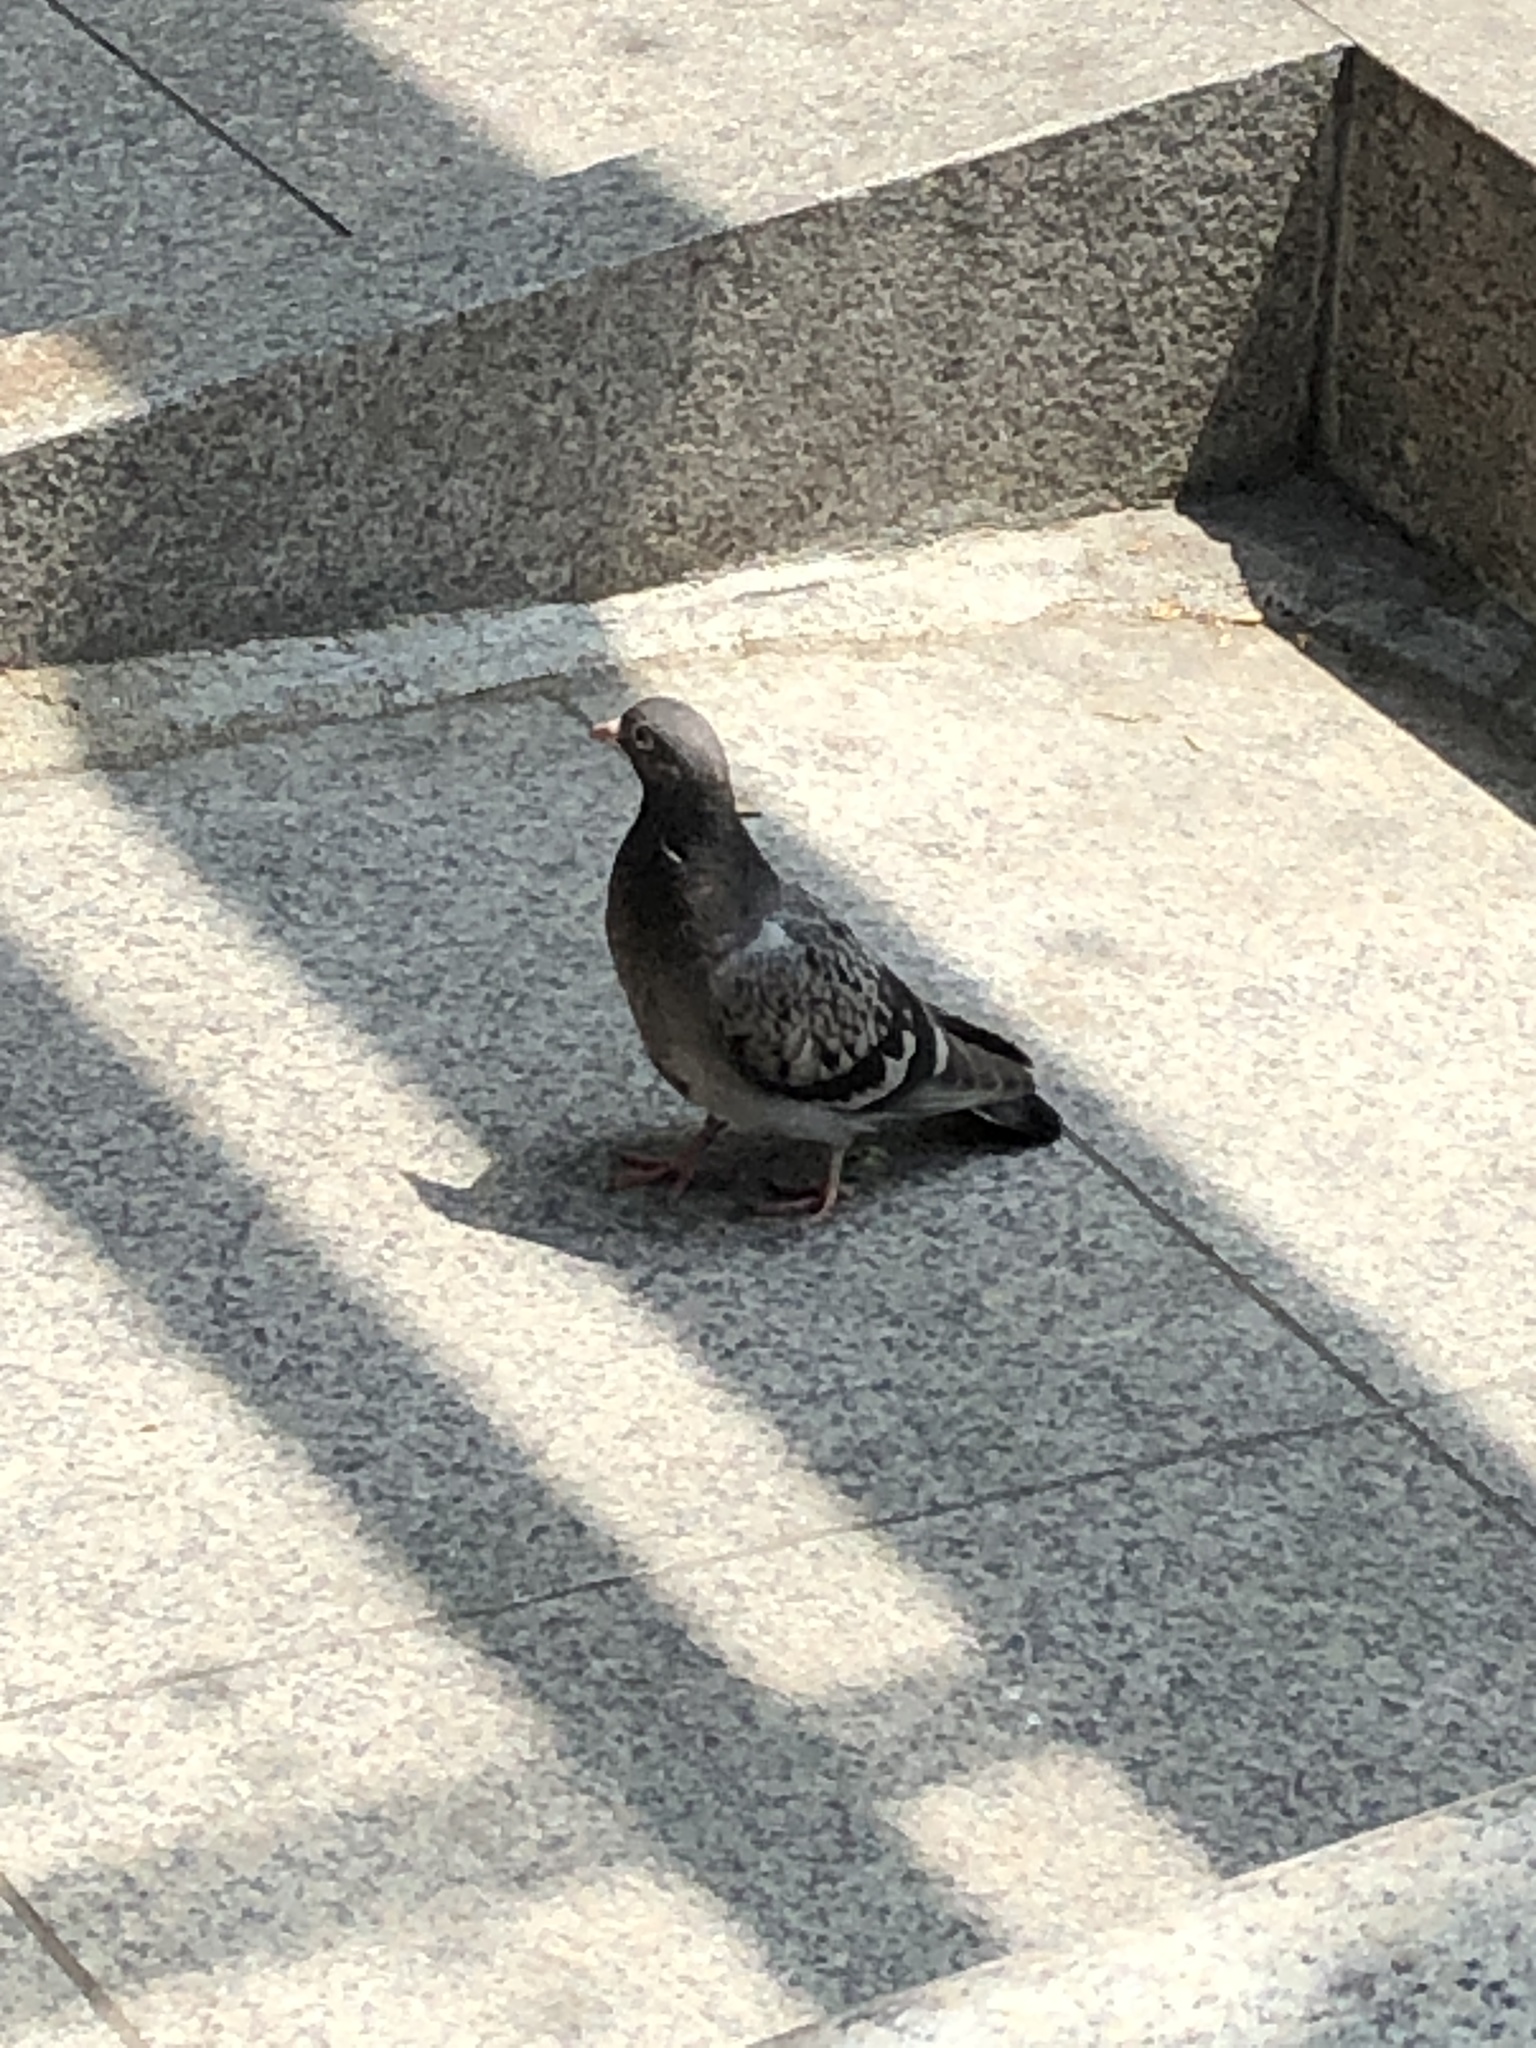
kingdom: Animalia
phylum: Chordata
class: Aves
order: Columbiformes
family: Columbidae
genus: Columba
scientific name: Columba livia
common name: Rock pigeon
